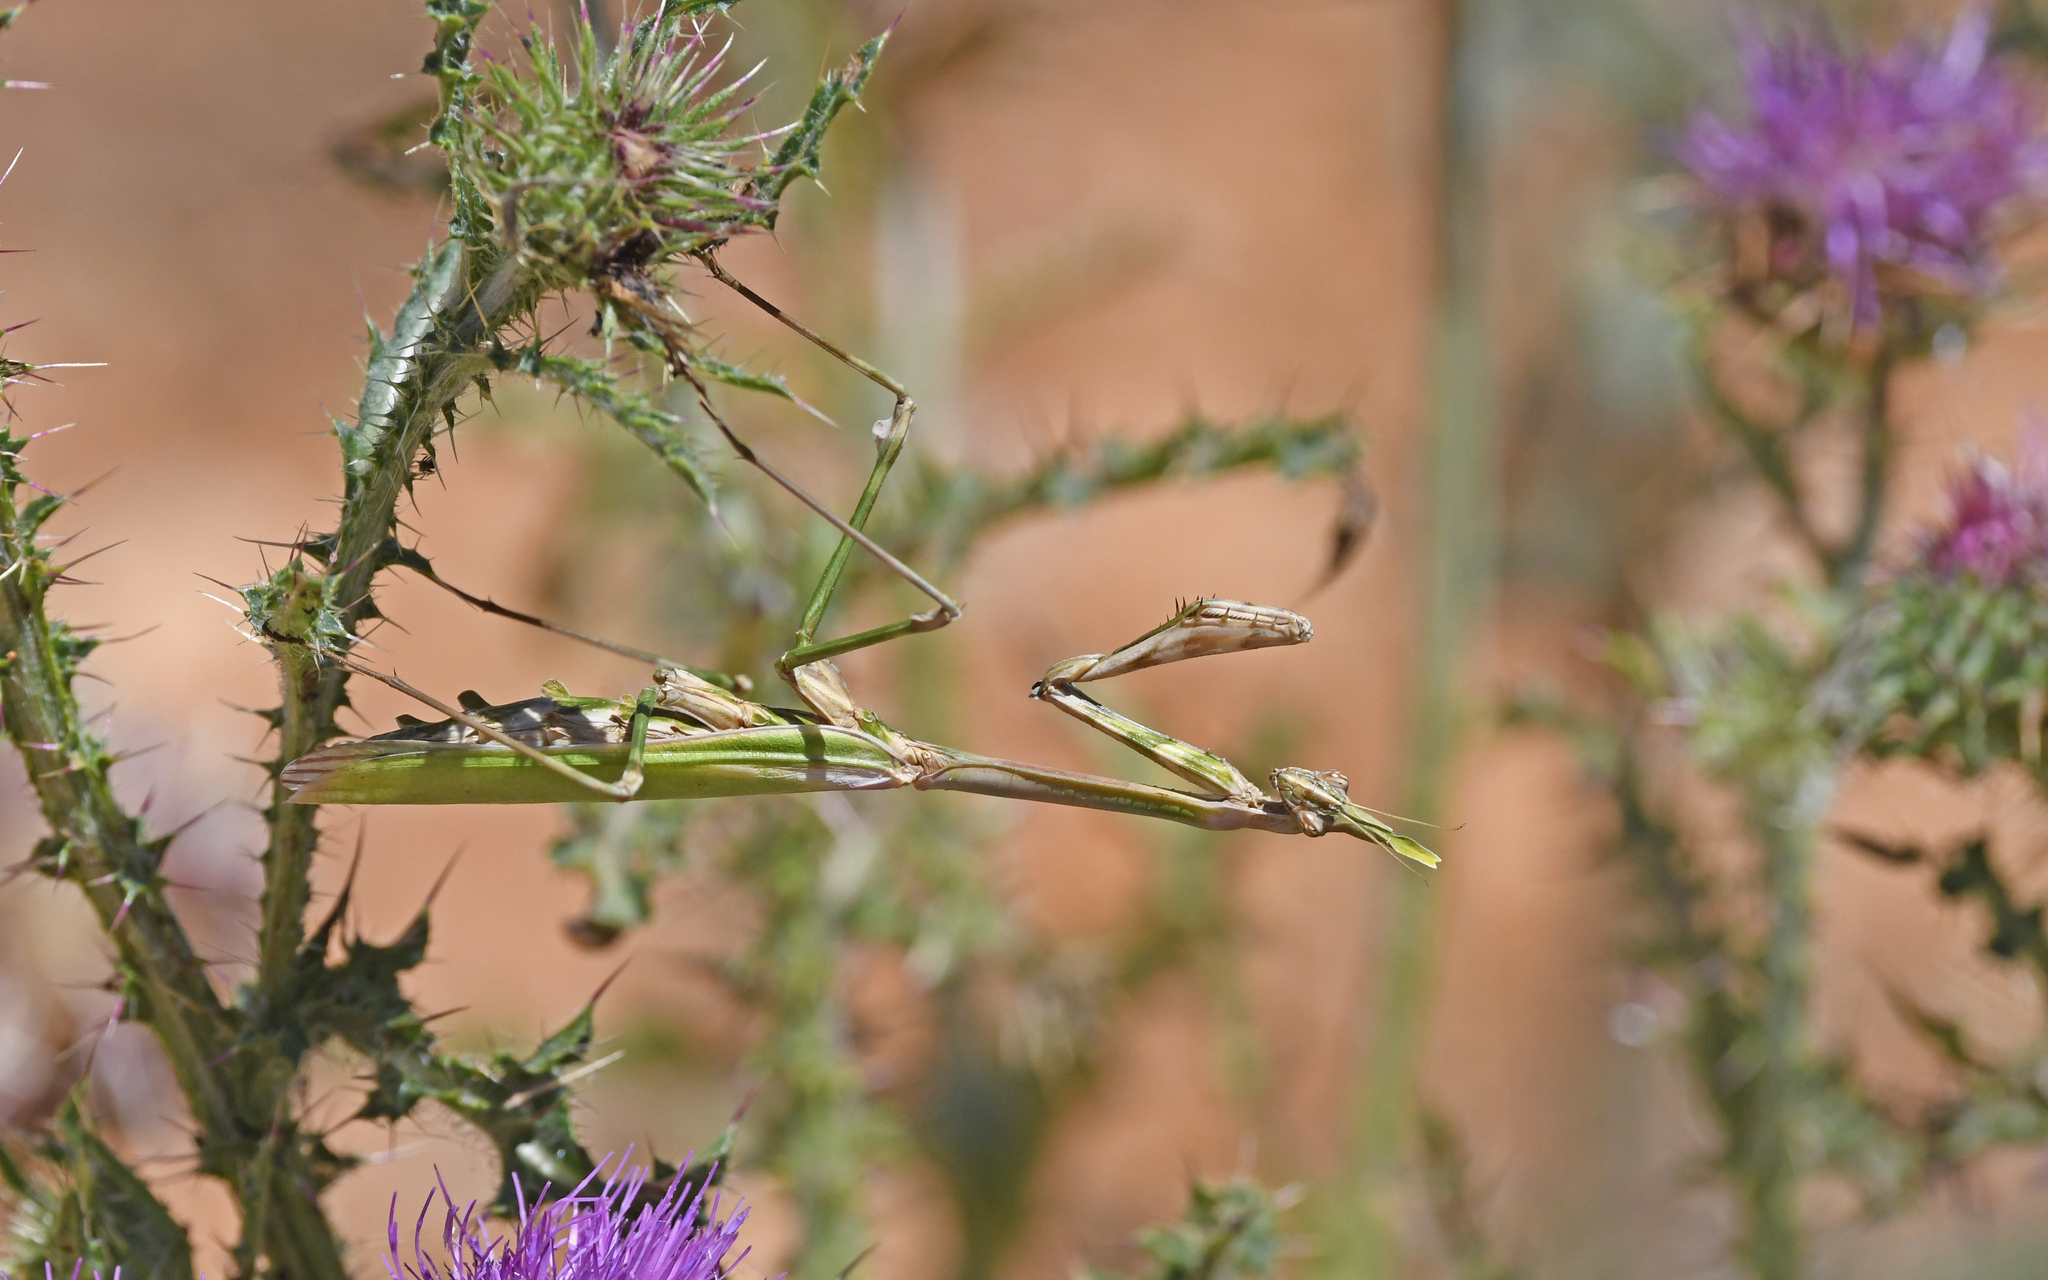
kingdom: Animalia
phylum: Arthropoda
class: Insecta
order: Mantodea
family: Empusidae
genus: Empusa
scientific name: Empusa pennata
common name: Conehead mantis
